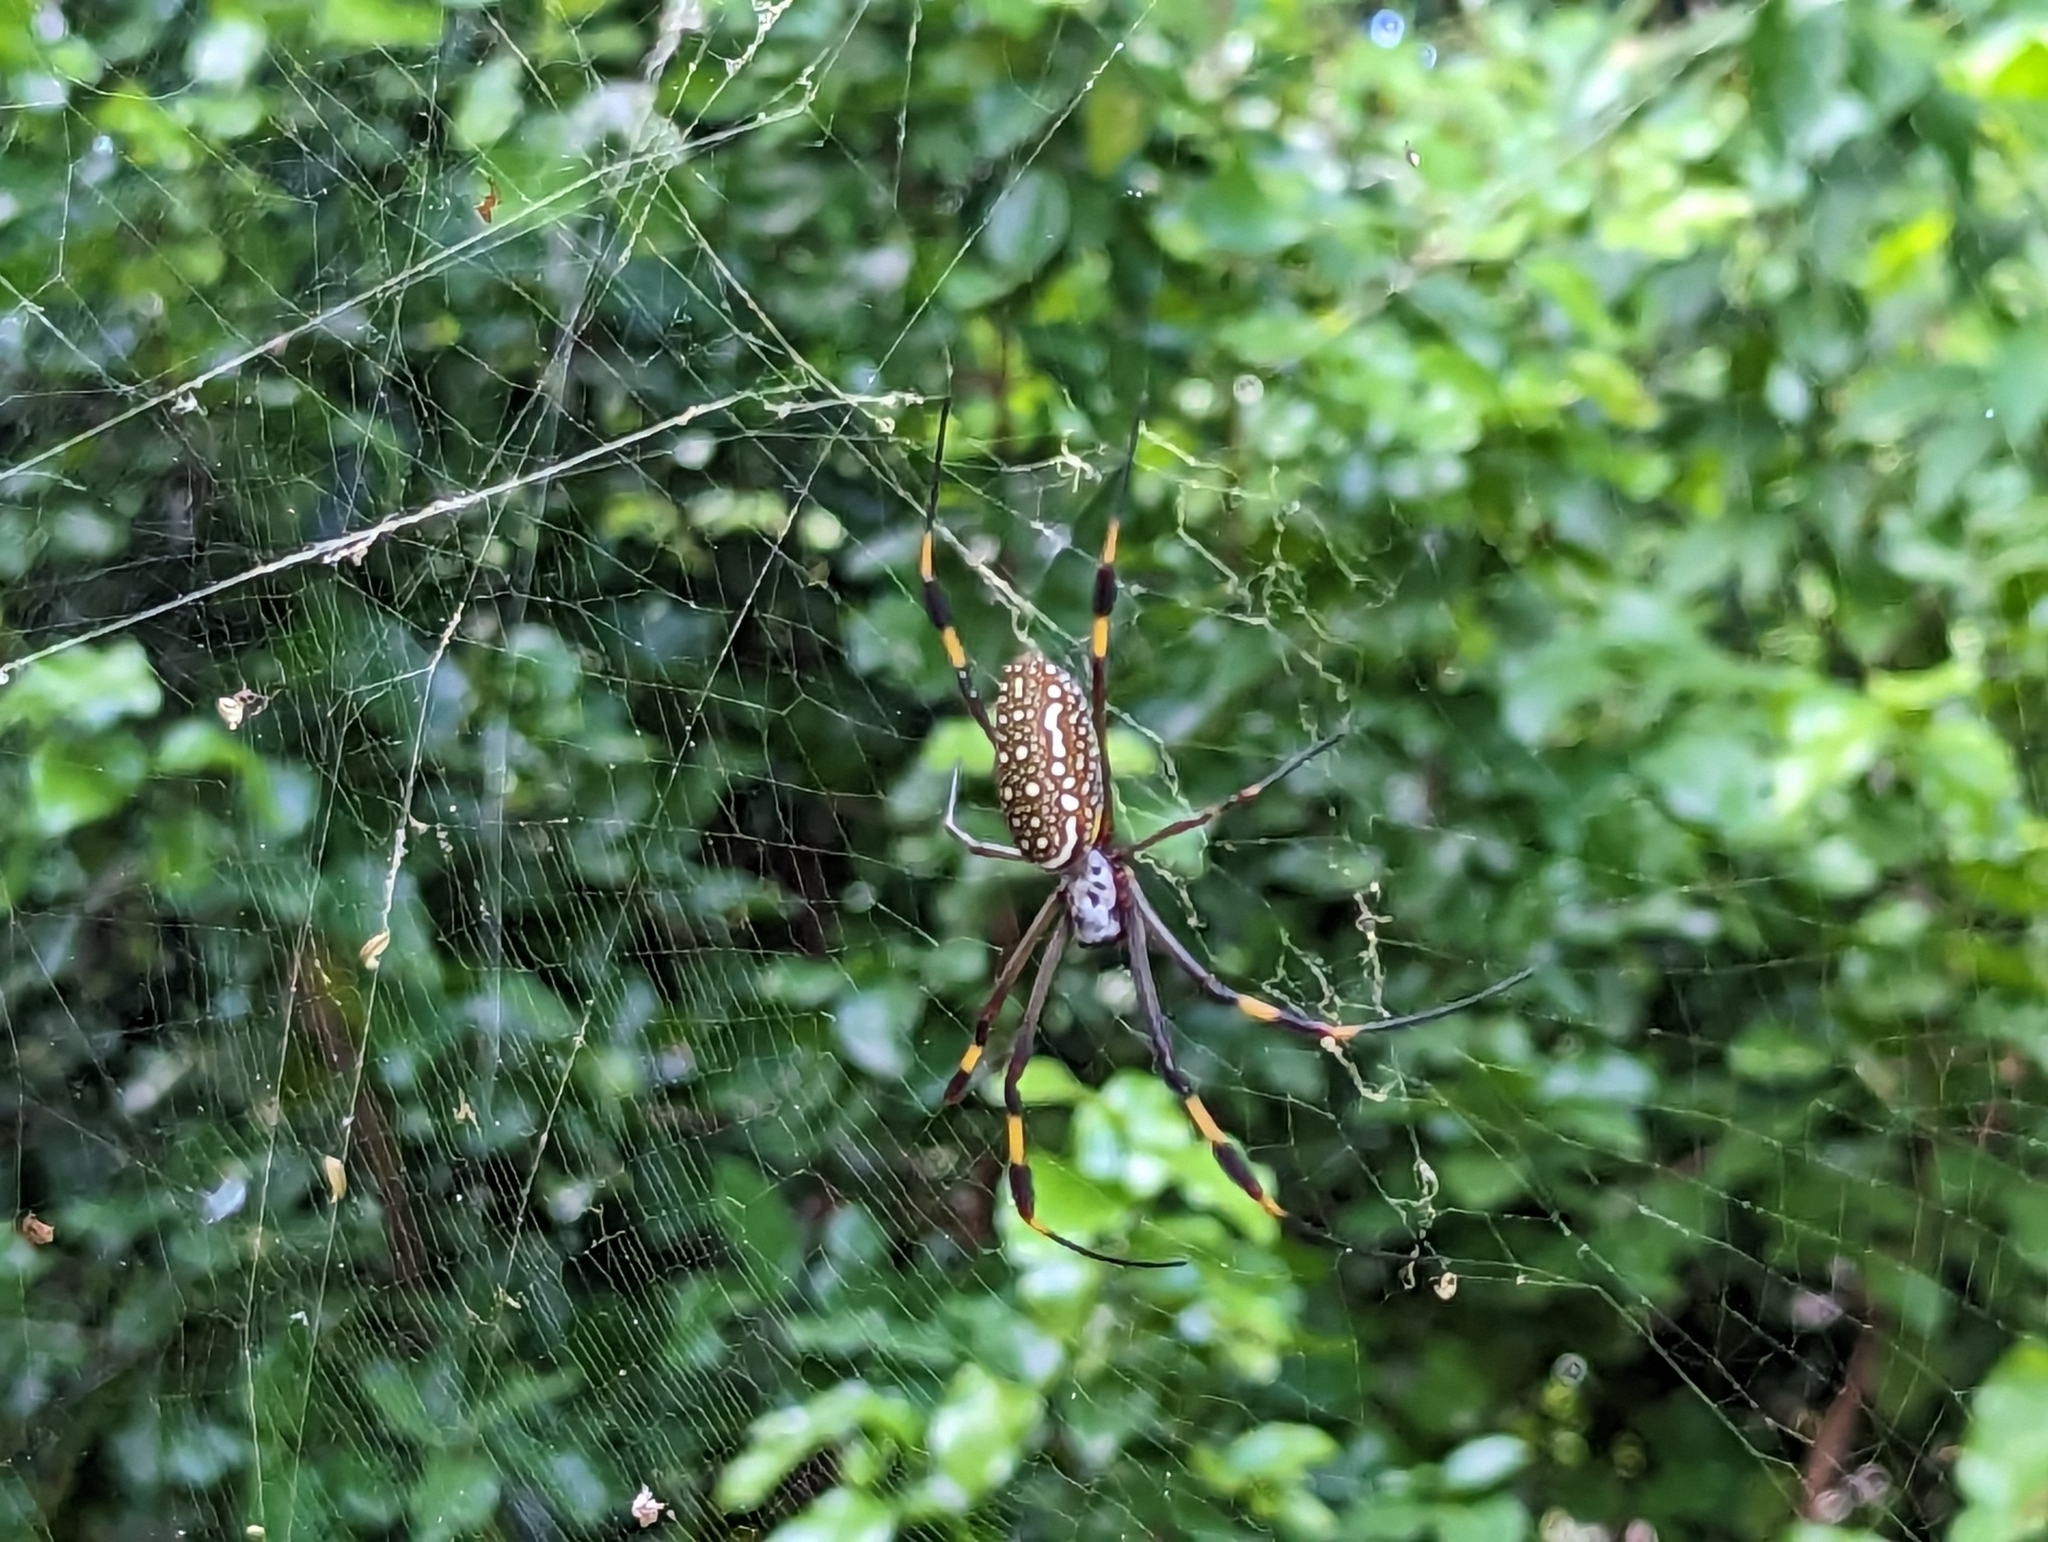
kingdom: Animalia
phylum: Arthropoda
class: Arachnida
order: Araneae
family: Araneidae
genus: Trichonephila
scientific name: Trichonephila clavipes
